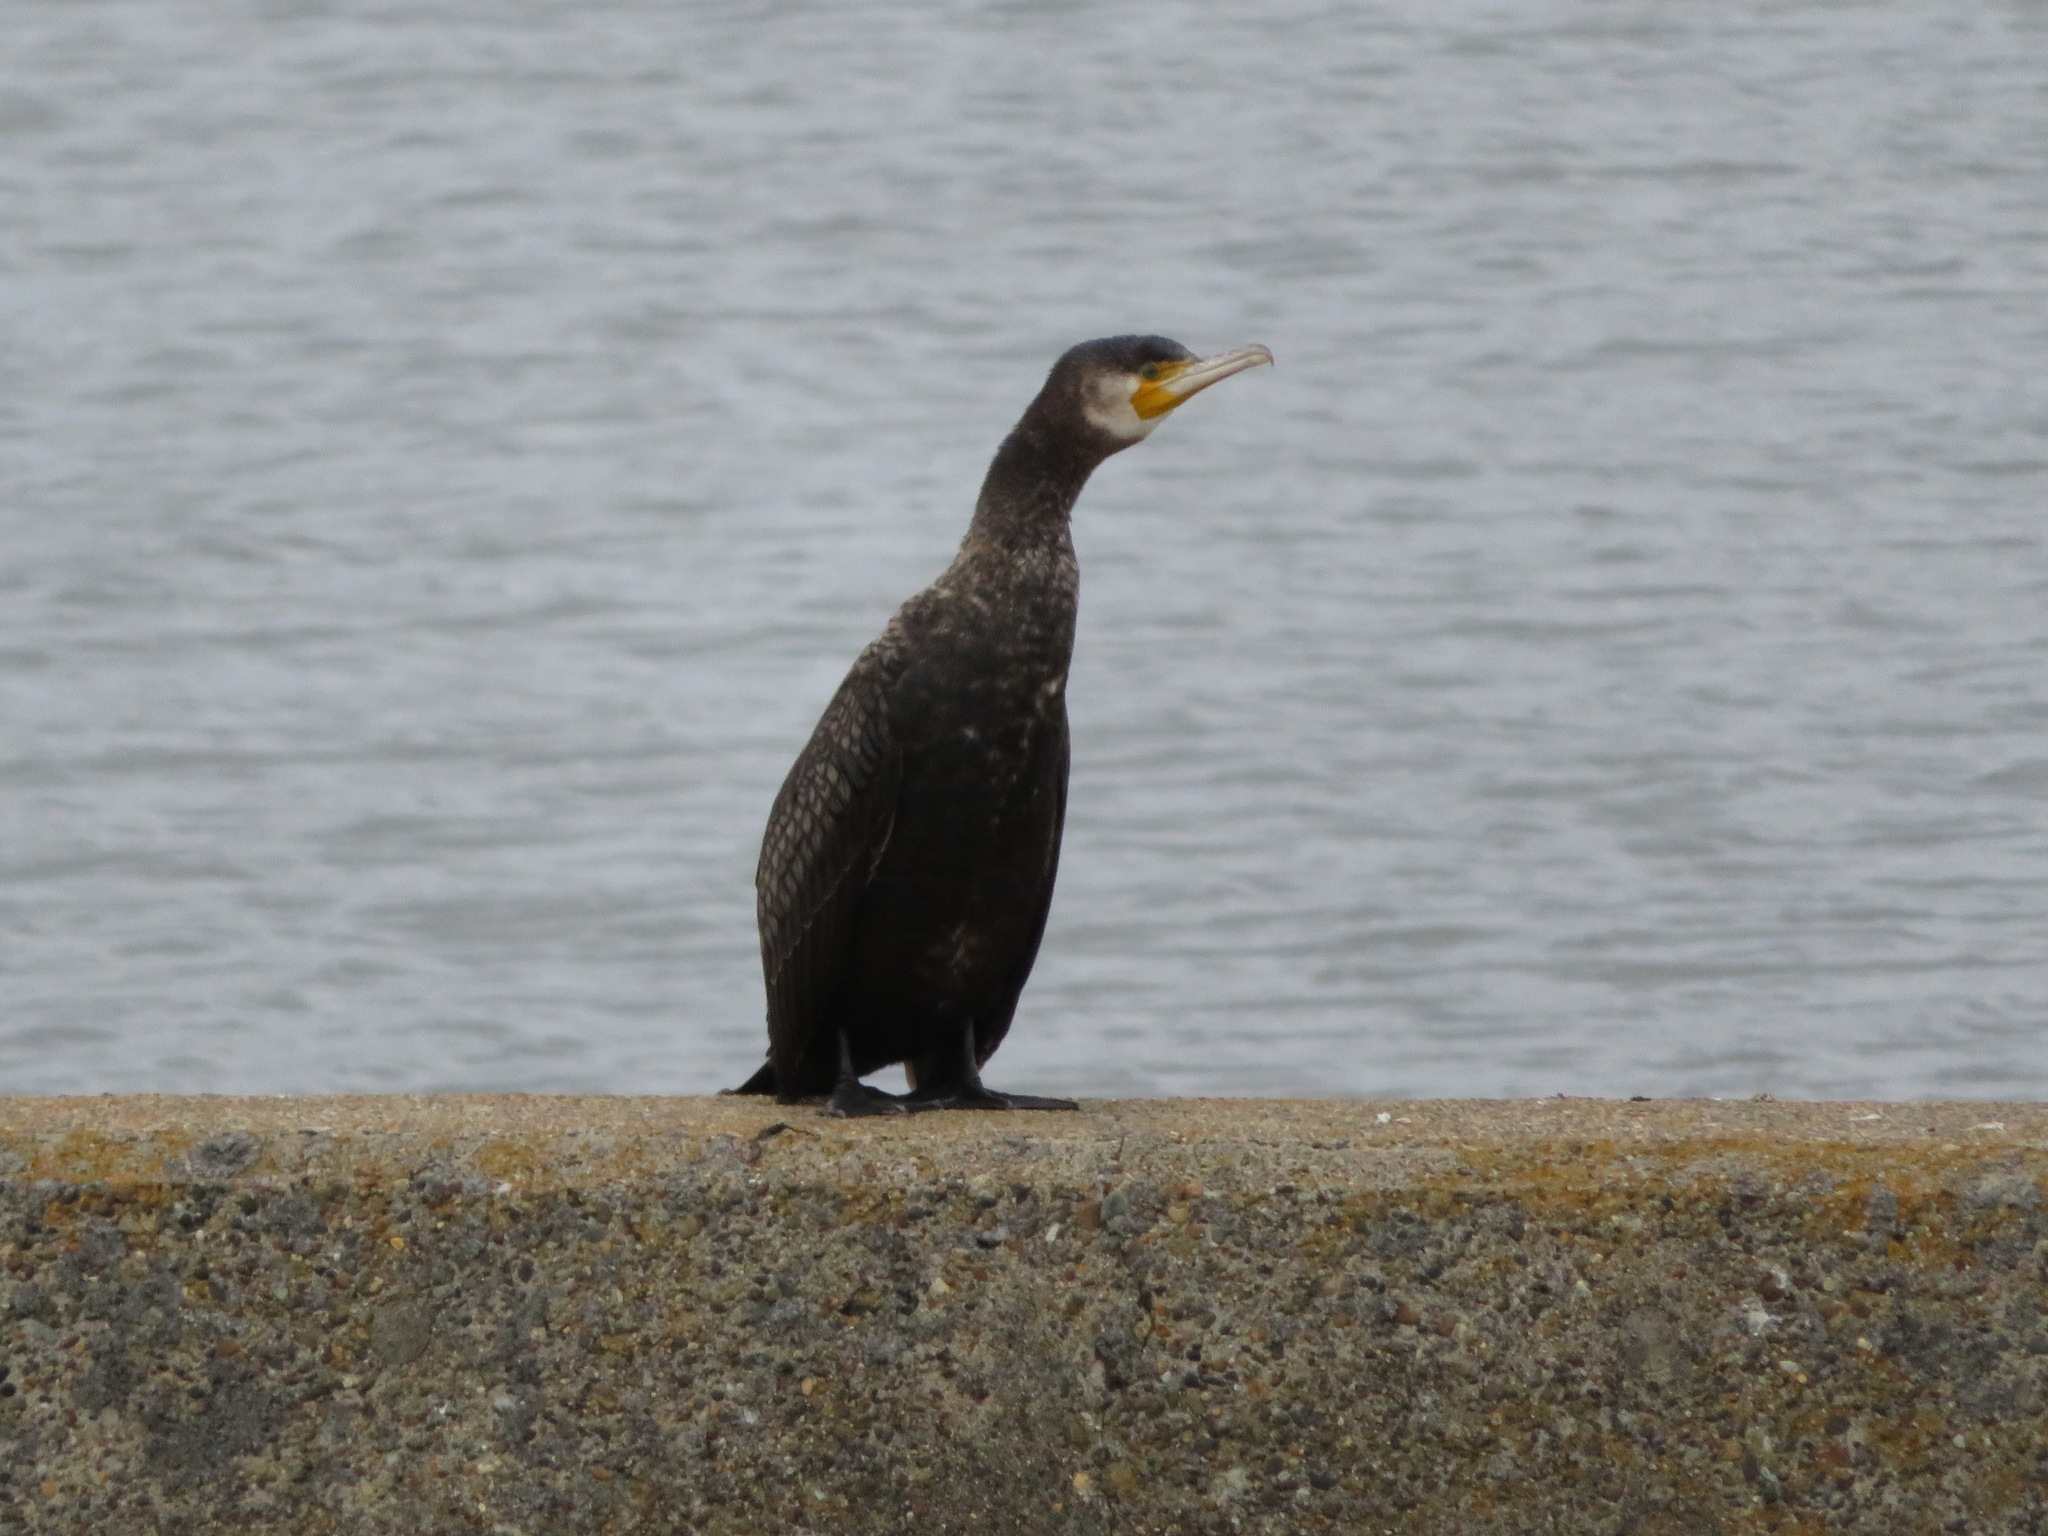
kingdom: Animalia
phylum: Chordata
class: Aves
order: Suliformes
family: Phalacrocoracidae
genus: Phalacrocorax
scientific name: Phalacrocorax carbo
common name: Great cormorant
